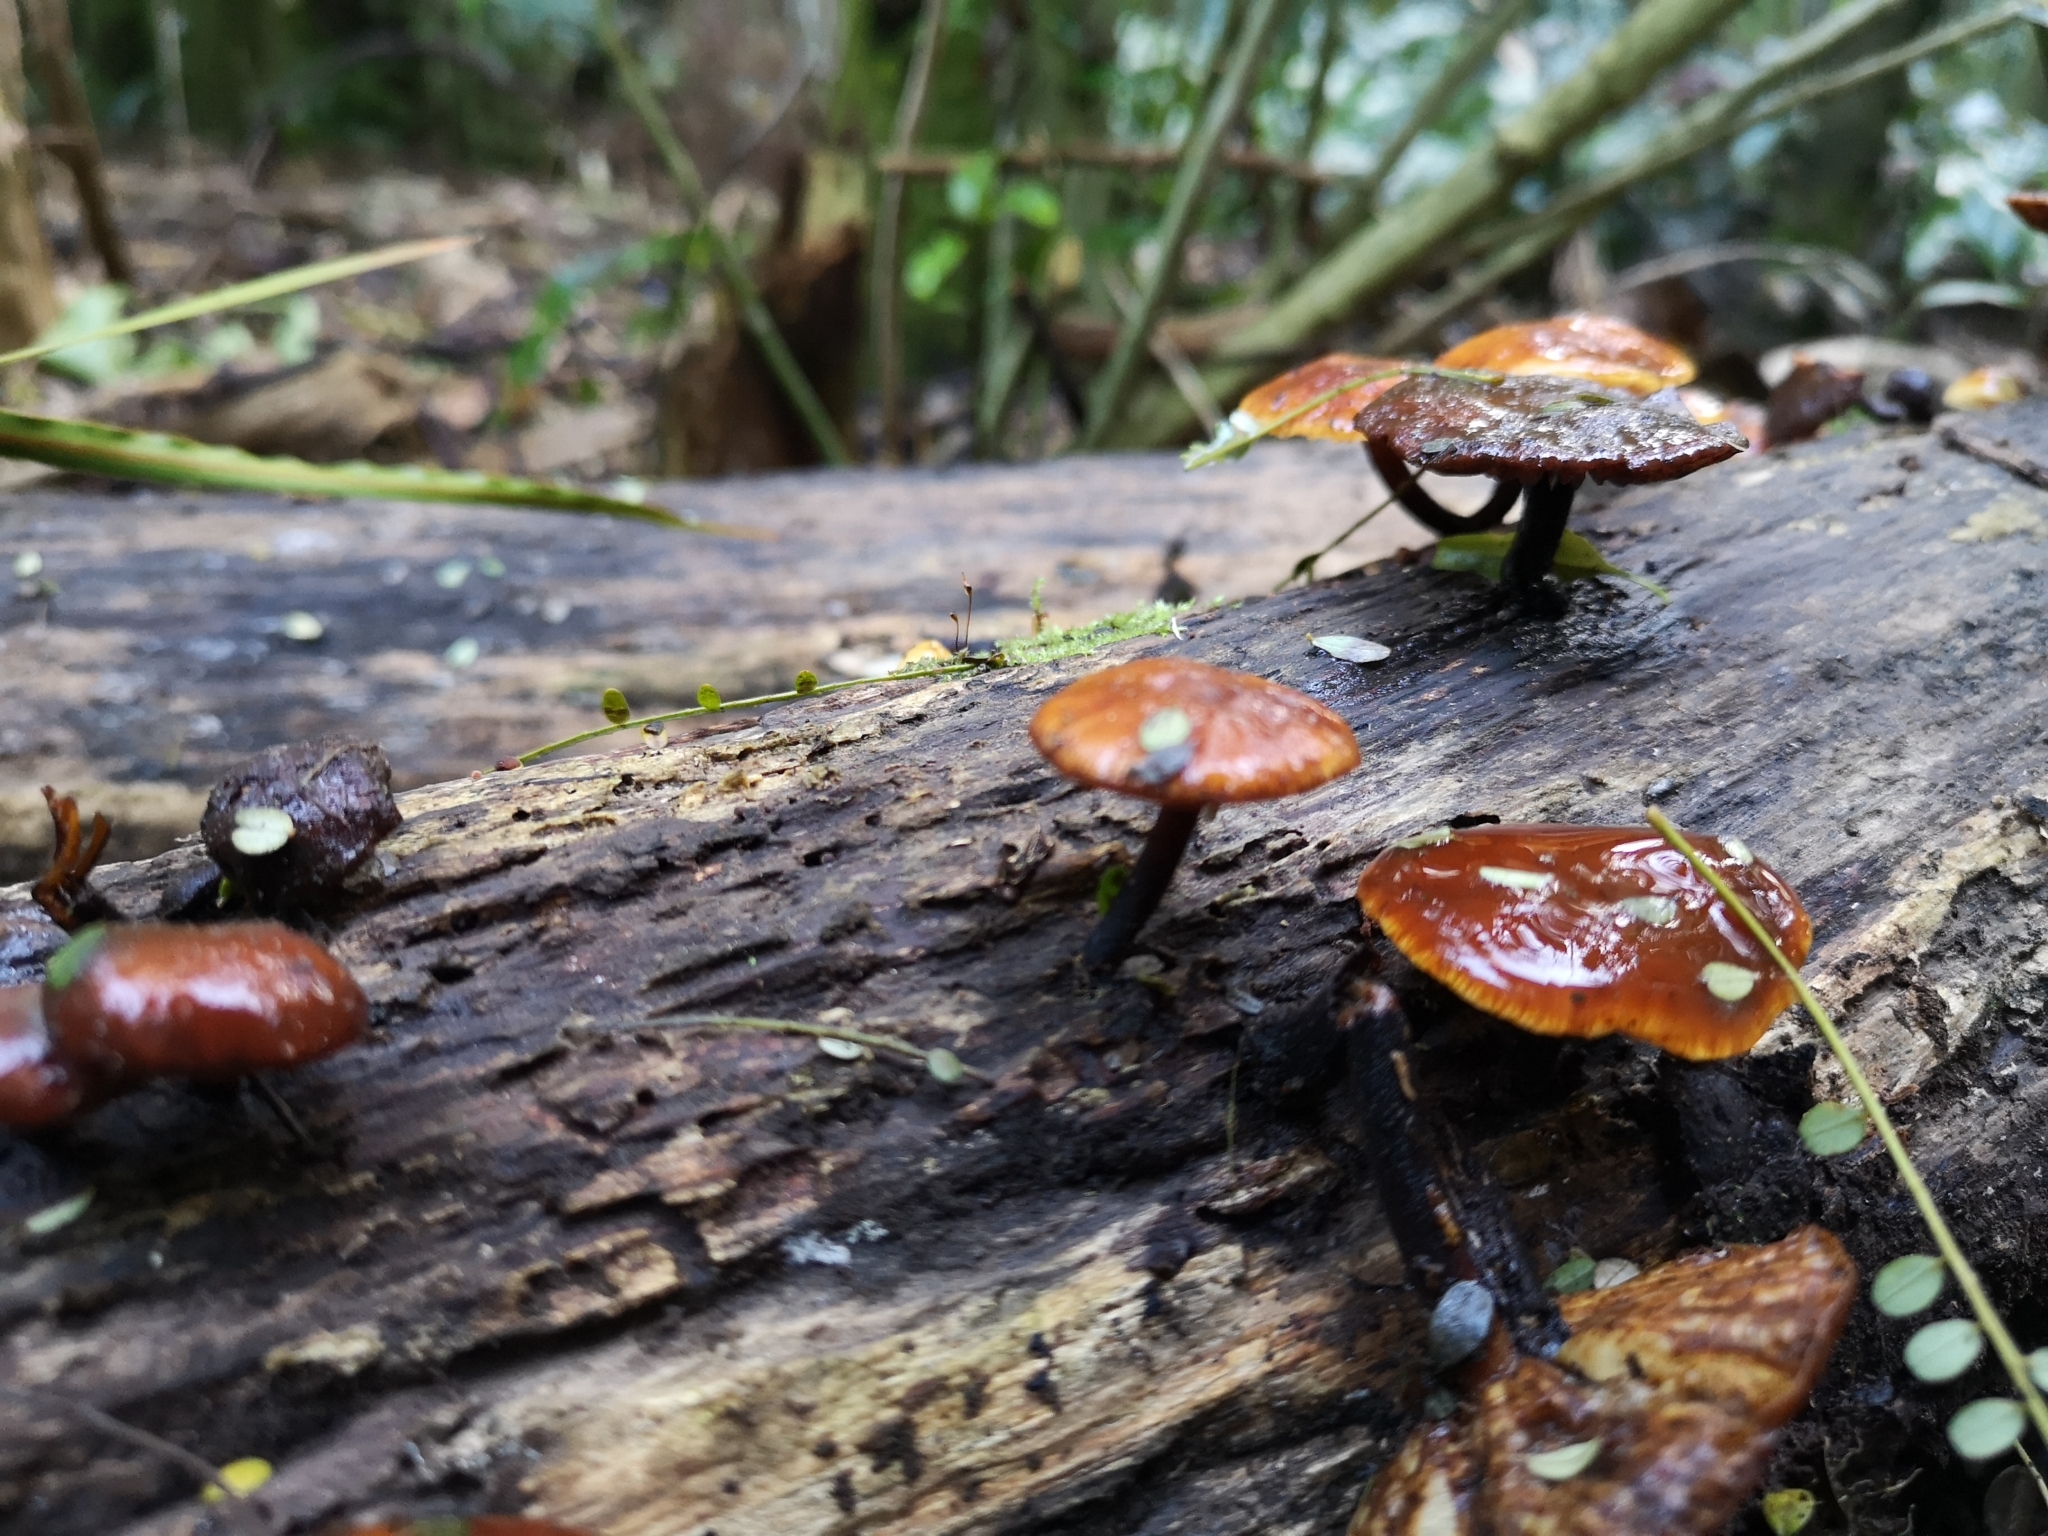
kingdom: Fungi
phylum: Basidiomycota
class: Agaricomycetes
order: Agaricales
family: Physalacriaceae
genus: Flammulina
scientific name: Flammulina velutipes
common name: Velvet shank
